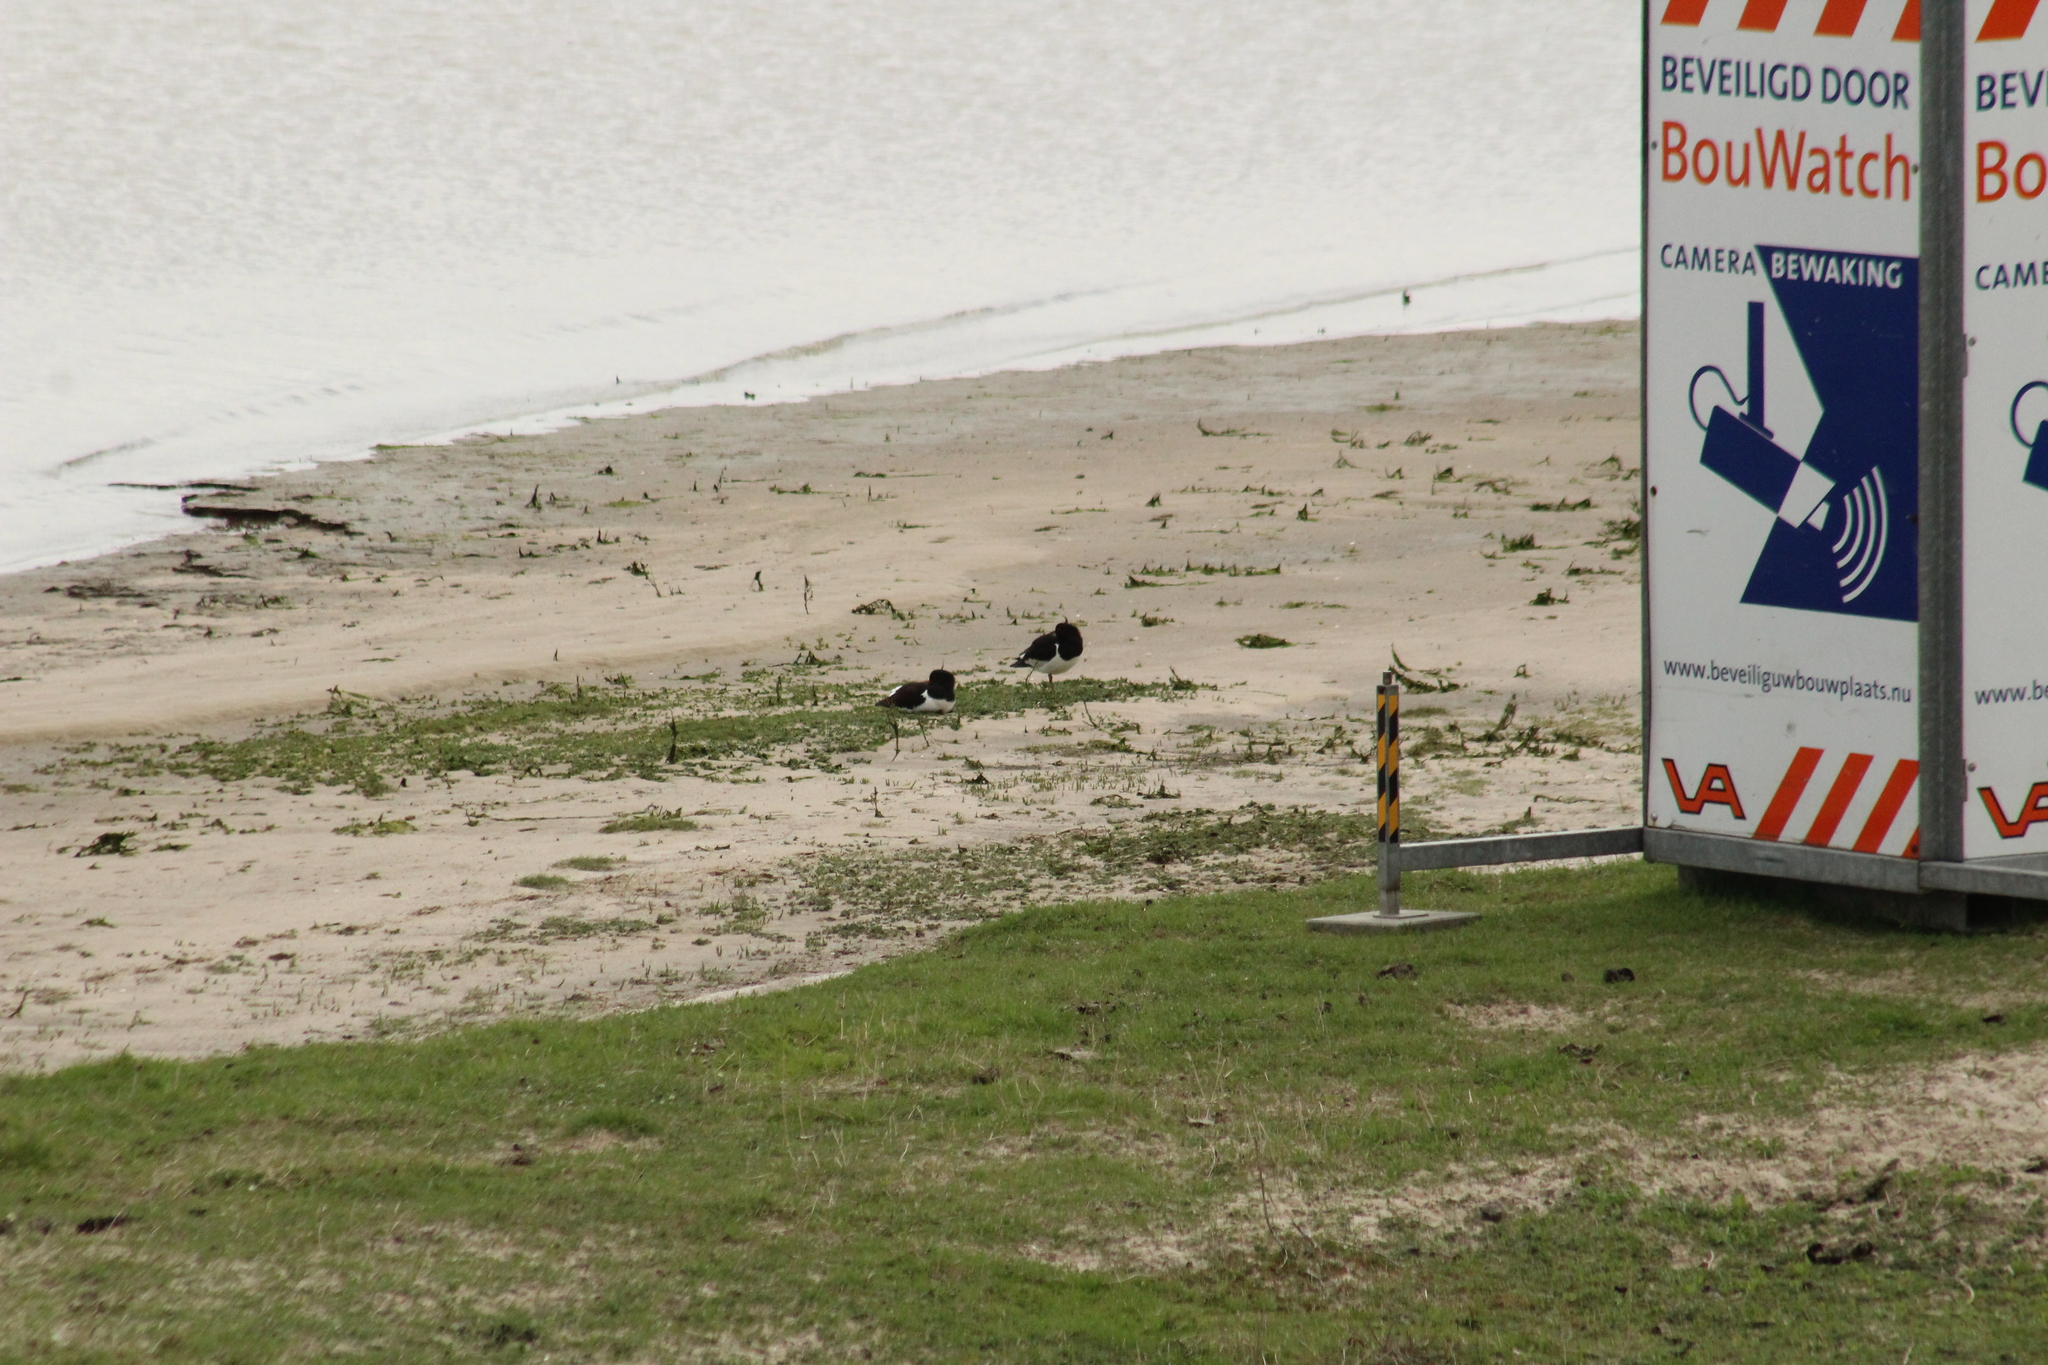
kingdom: Animalia
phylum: Chordata
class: Aves
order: Charadriiformes
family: Haematopodidae
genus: Haematopus
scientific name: Haematopus ostralegus
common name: Eurasian oystercatcher
